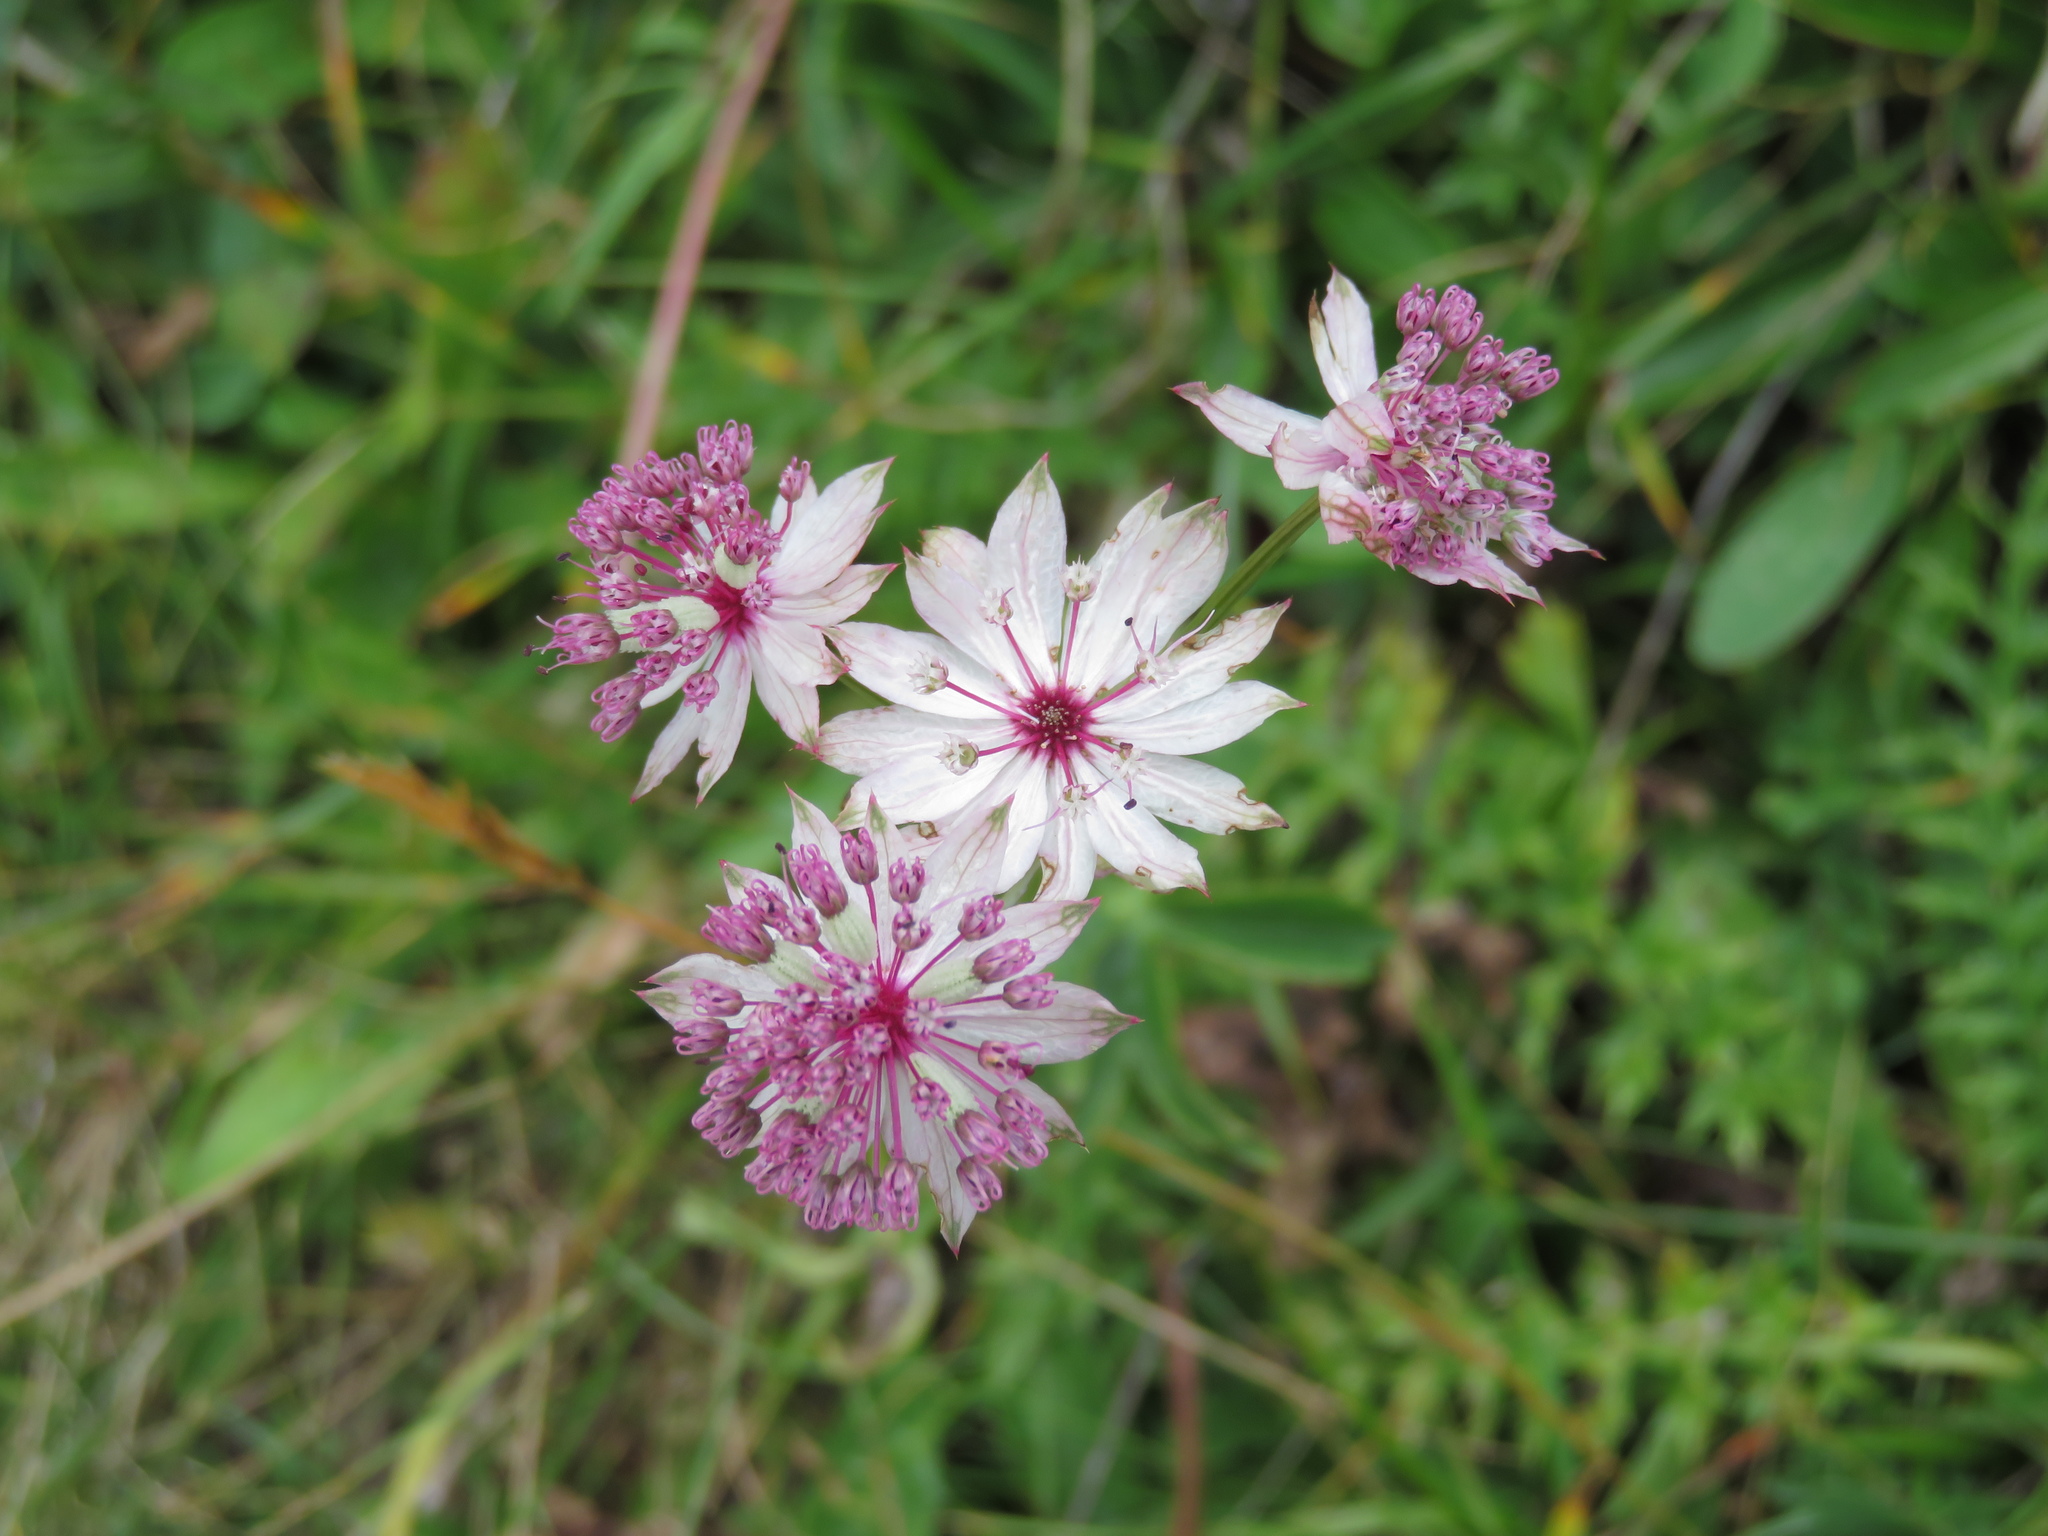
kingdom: Plantae
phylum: Tracheophyta
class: Magnoliopsida
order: Apiales
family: Apiaceae
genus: Astrantia
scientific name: Astrantia major
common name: Greater masterwort
